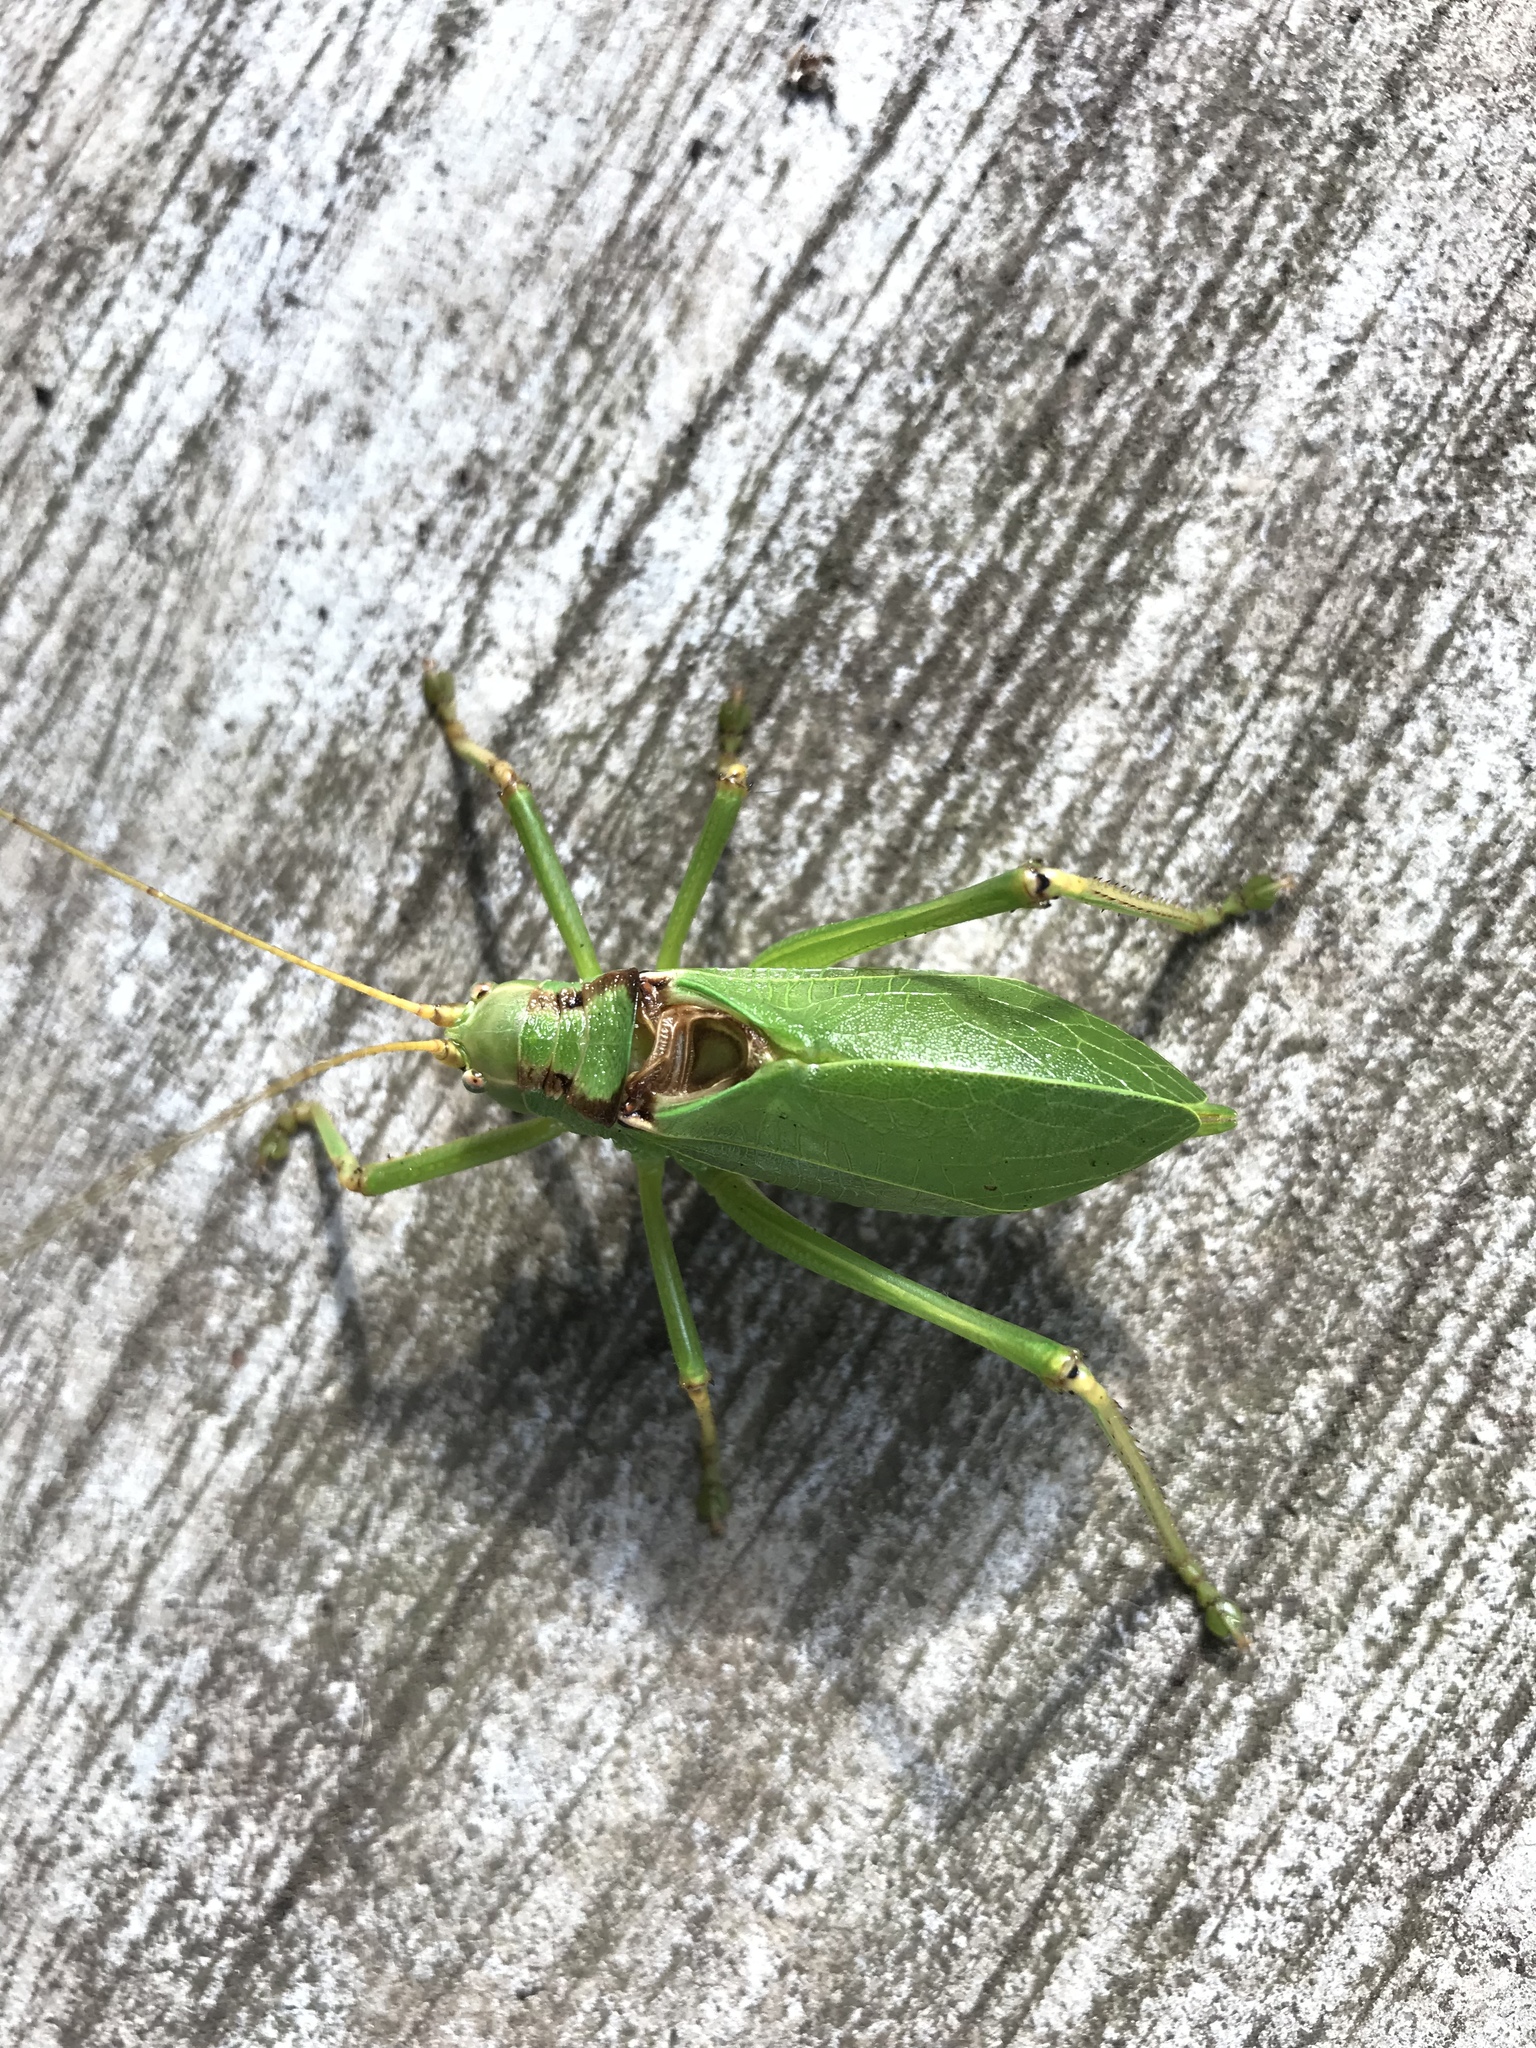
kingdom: Animalia
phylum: Arthropoda
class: Insecta
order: Orthoptera
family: Tettigoniidae
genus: Paracyrtophyllus
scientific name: Paracyrtophyllus robustus
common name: Central texas leaf katydid
